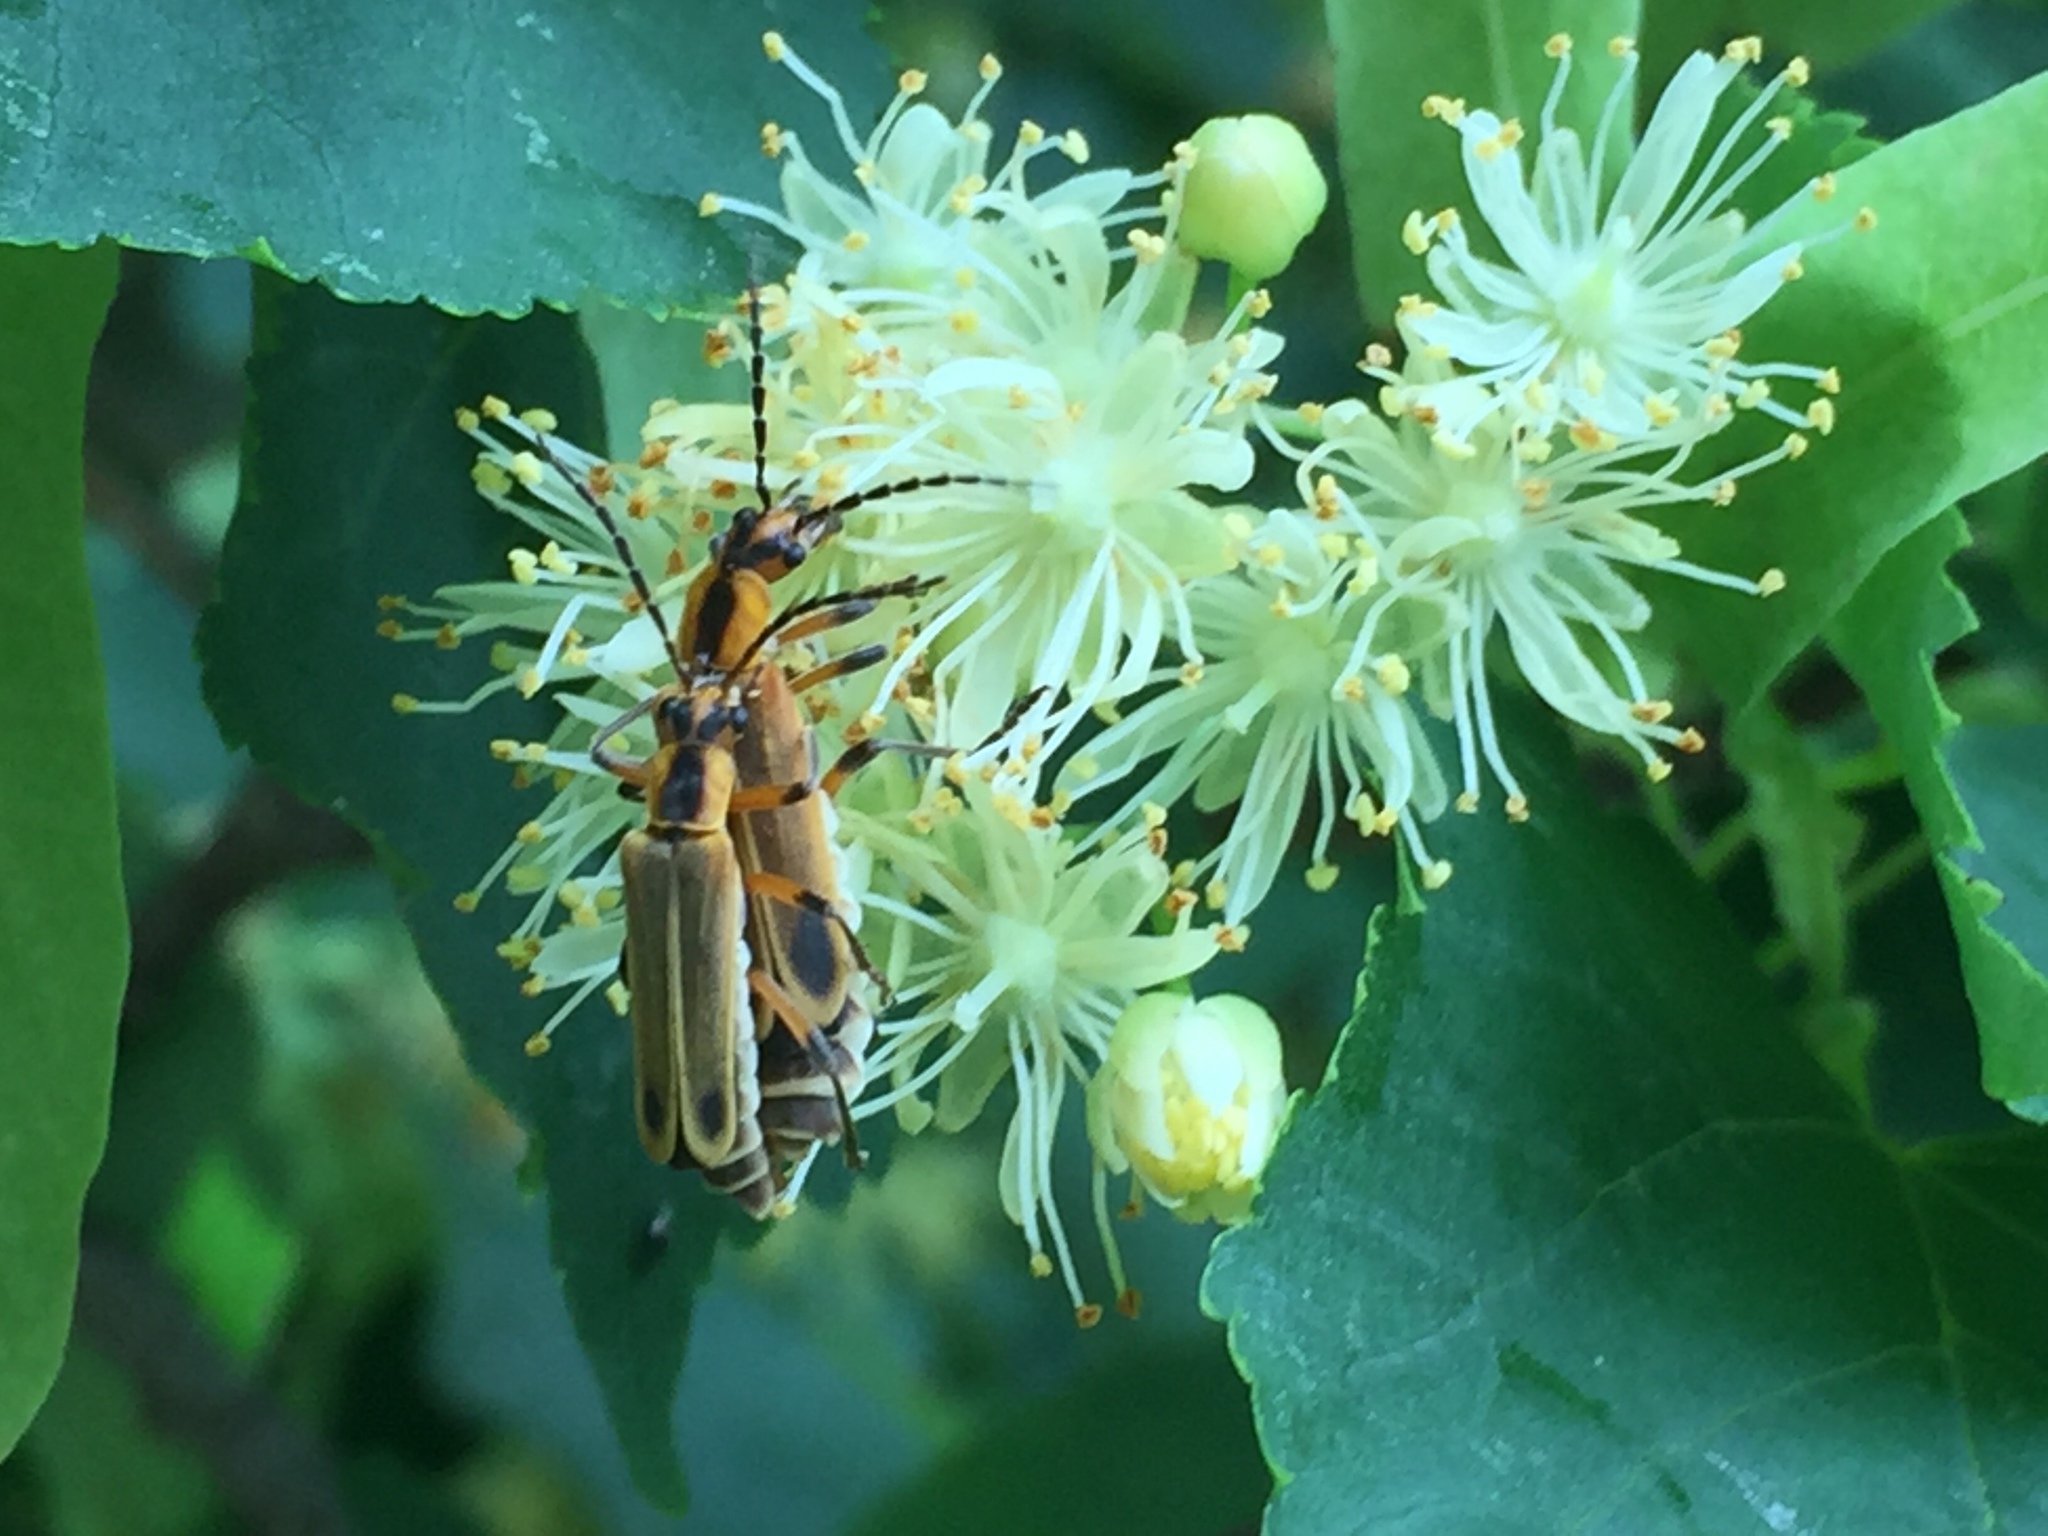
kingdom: Animalia
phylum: Arthropoda
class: Insecta
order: Coleoptera
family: Cantharidae
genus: Chauliognathus
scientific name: Chauliognathus marginatus
